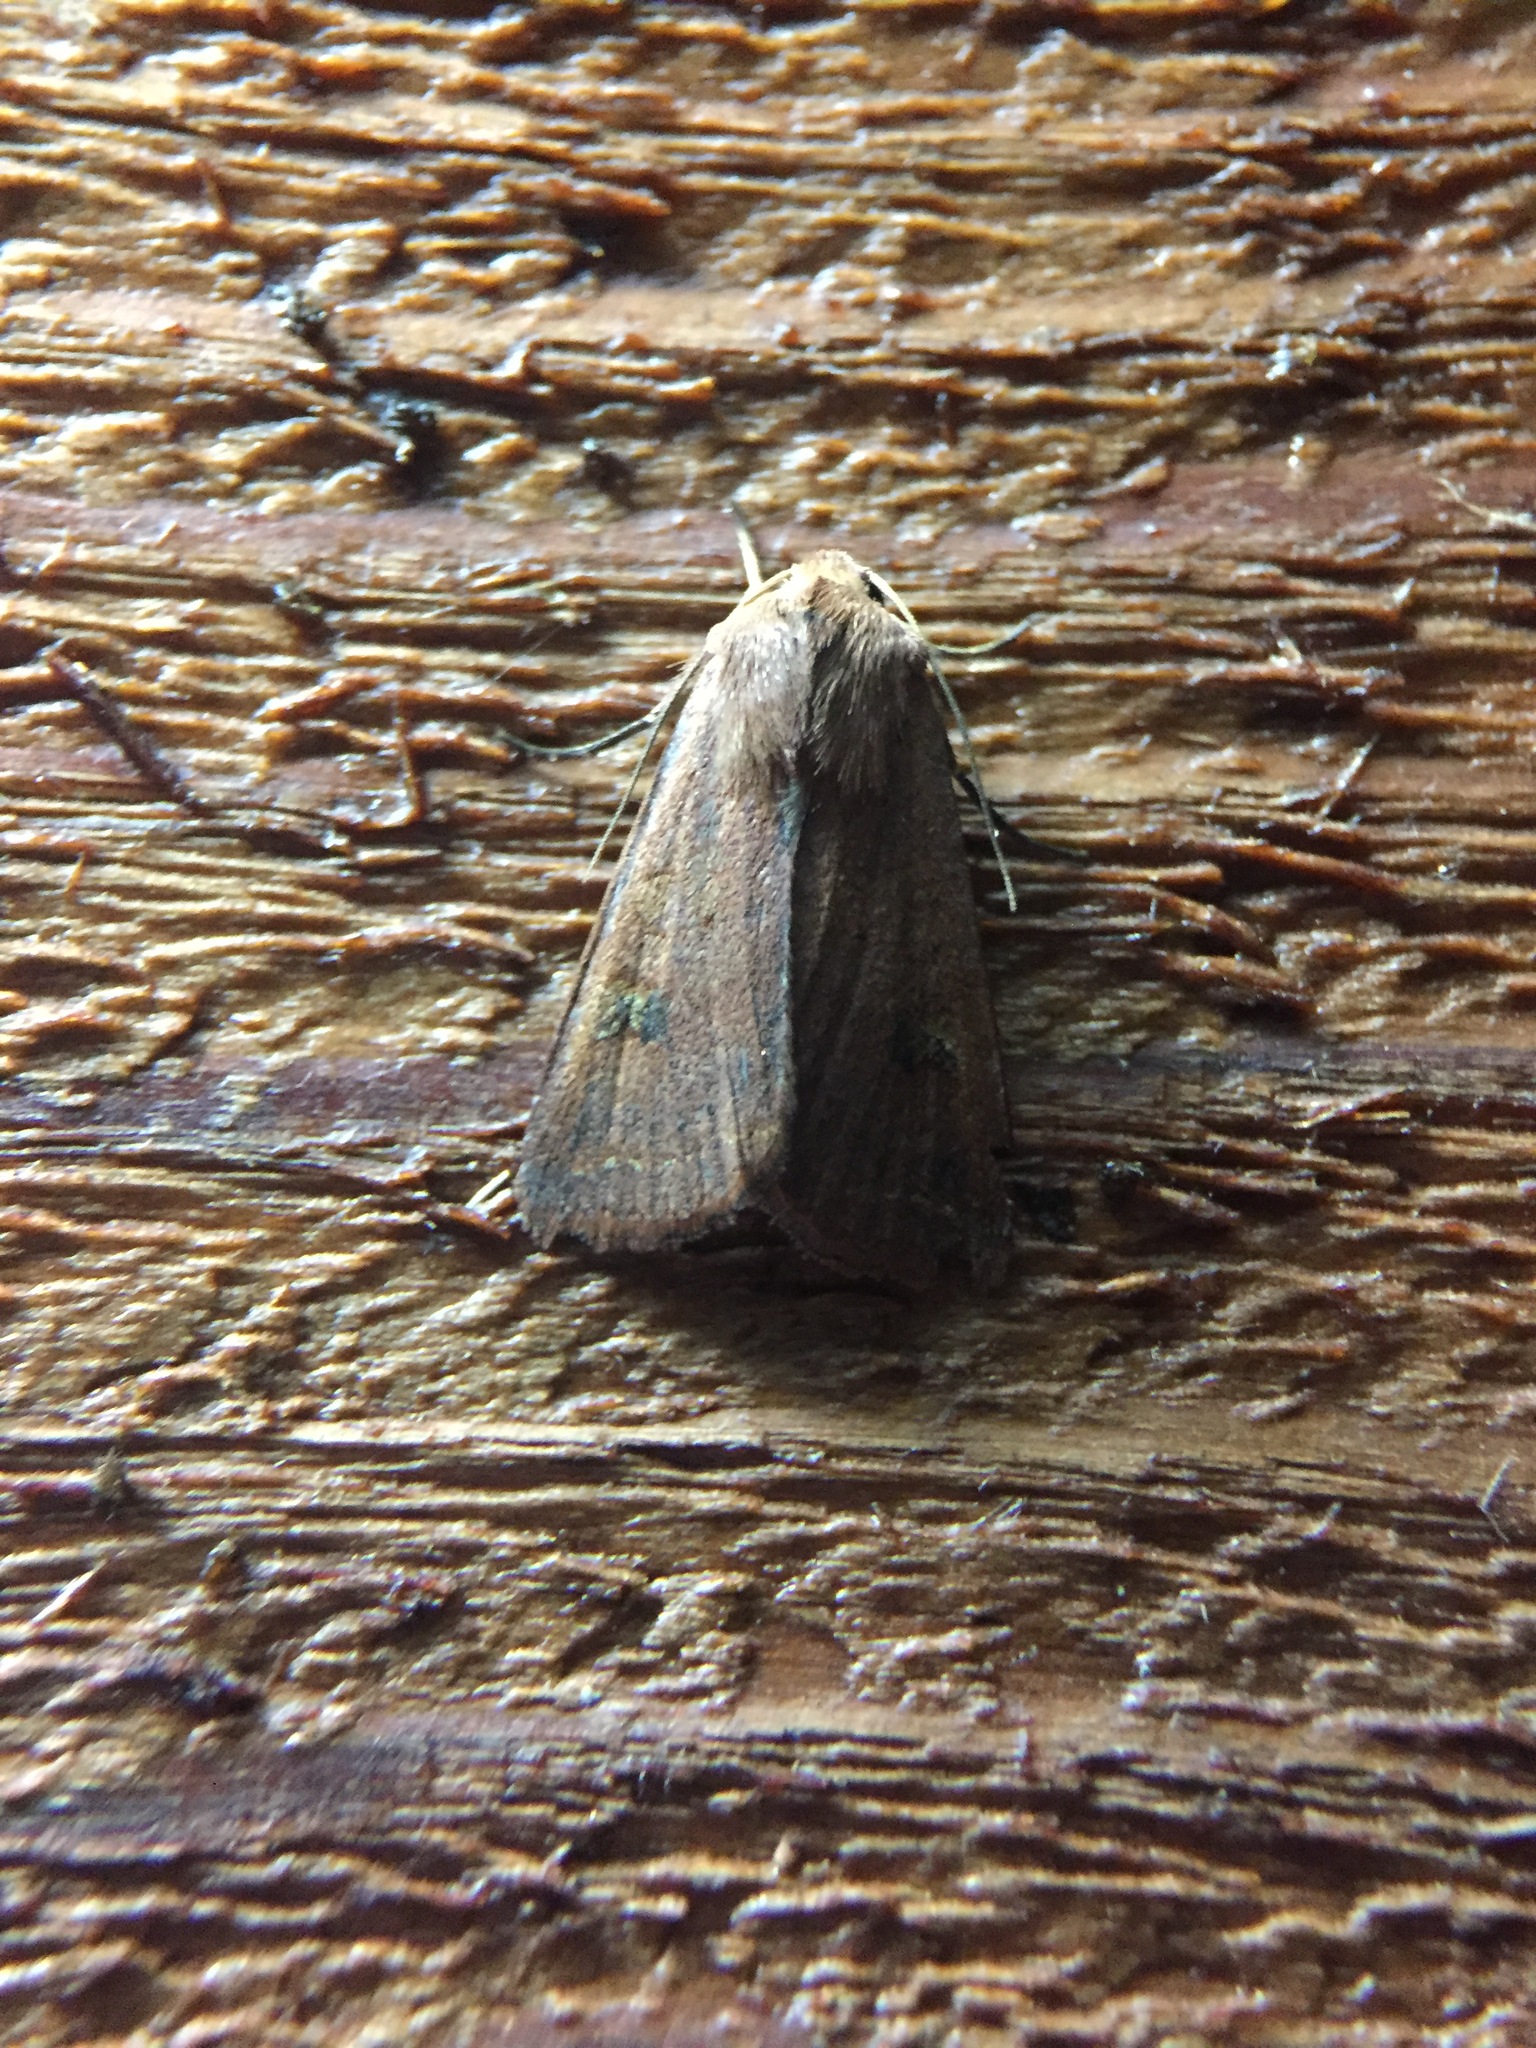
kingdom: Animalia
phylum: Arthropoda
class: Insecta
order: Lepidoptera
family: Noctuidae
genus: Diarsia
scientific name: Diarsia intermixta
